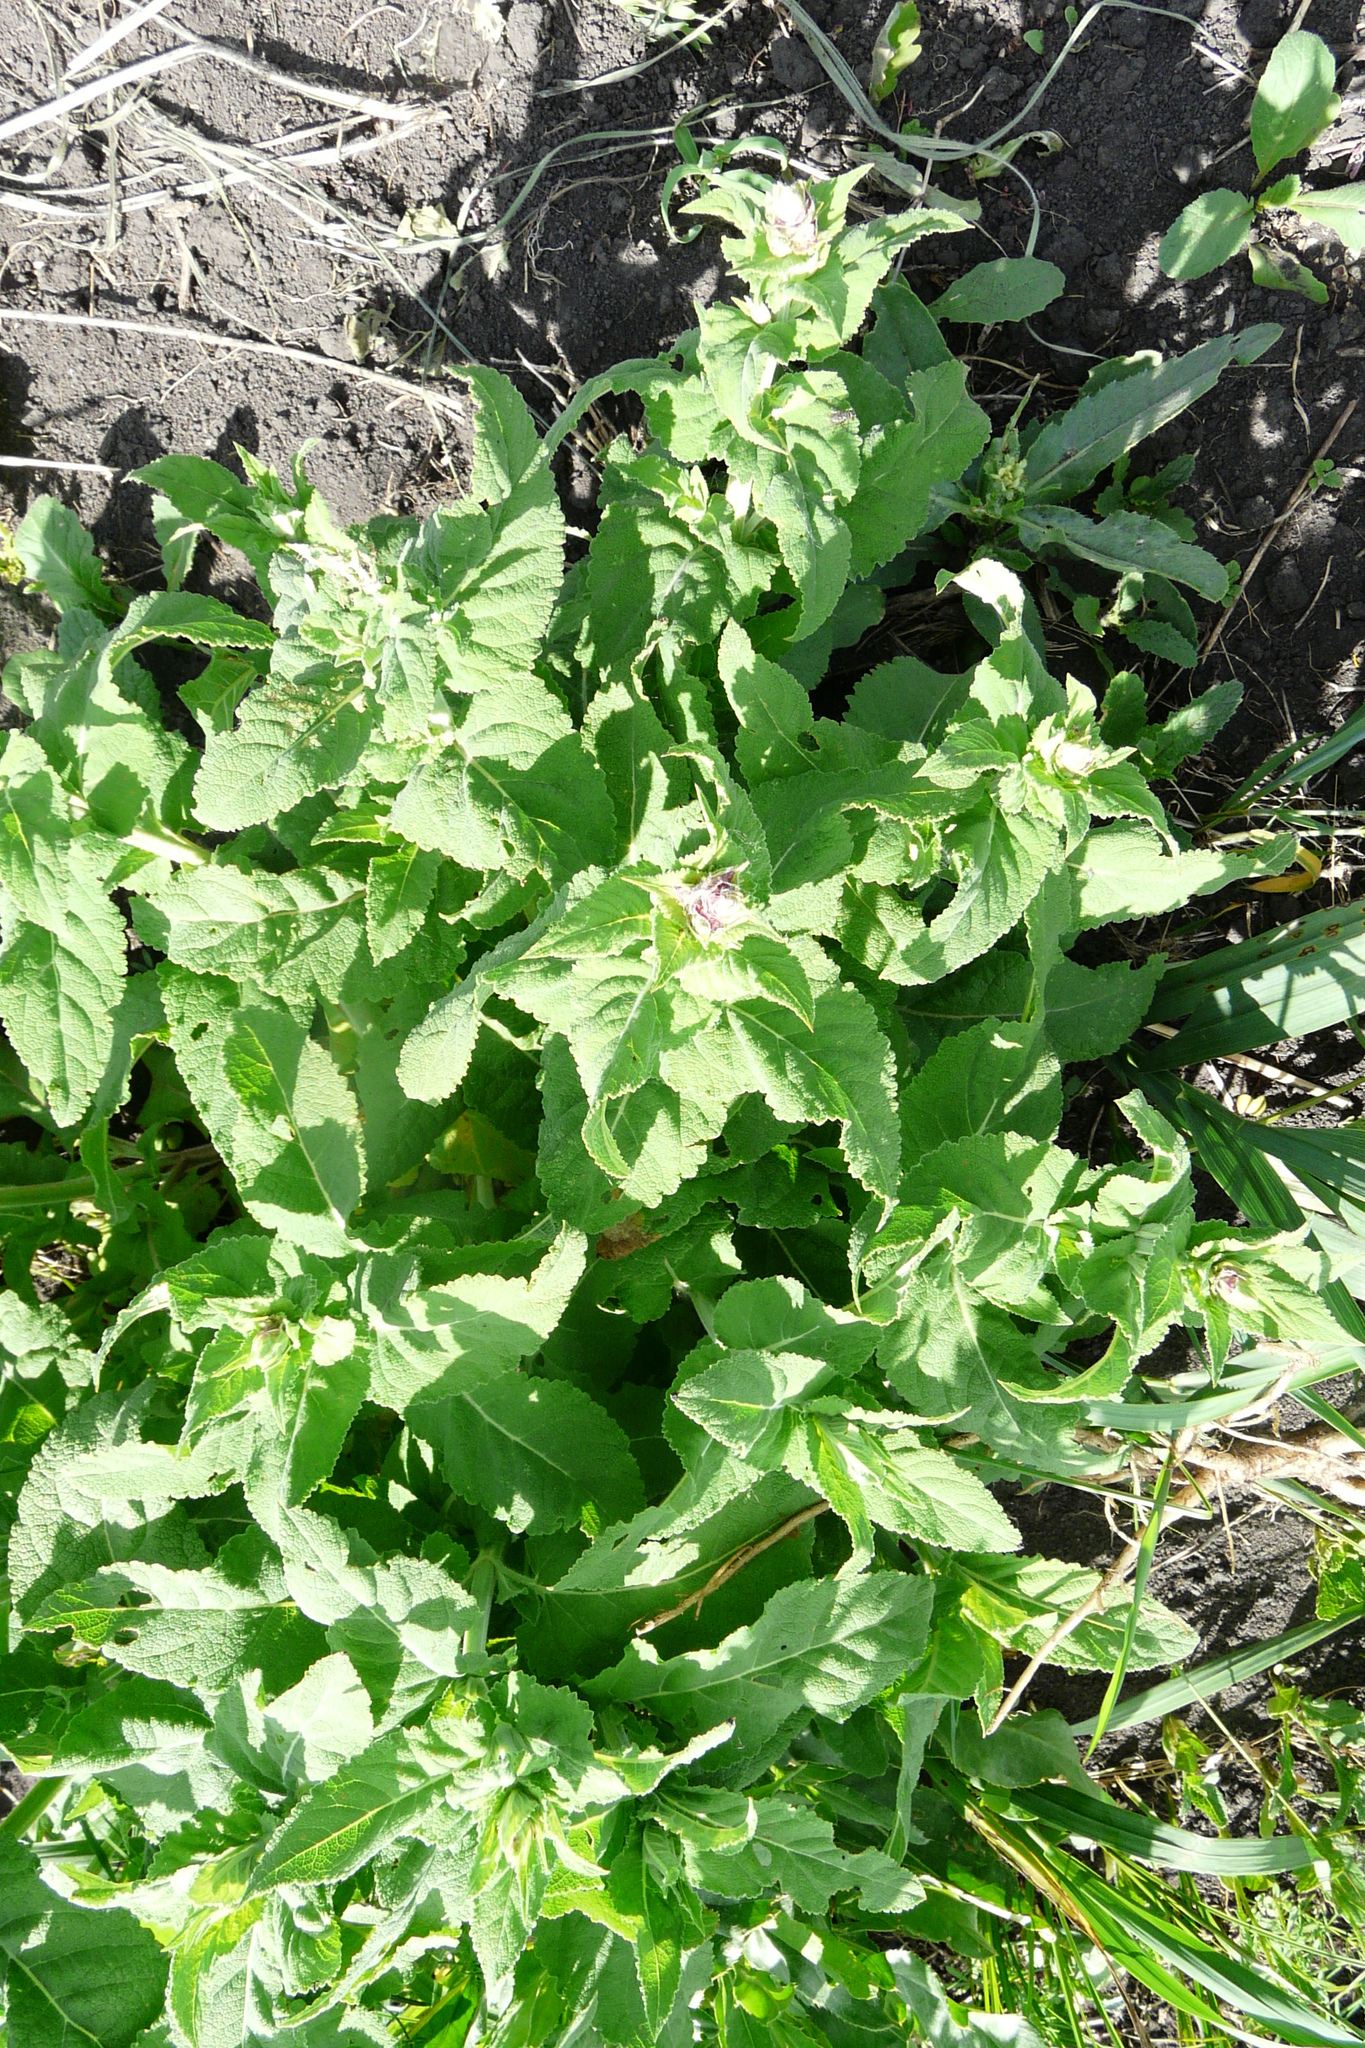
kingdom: Plantae
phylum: Tracheophyta
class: Magnoliopsida
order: Lamiales
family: Lamiaceae
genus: Salvia
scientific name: Salvia nemorosa
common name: Balkan clary
